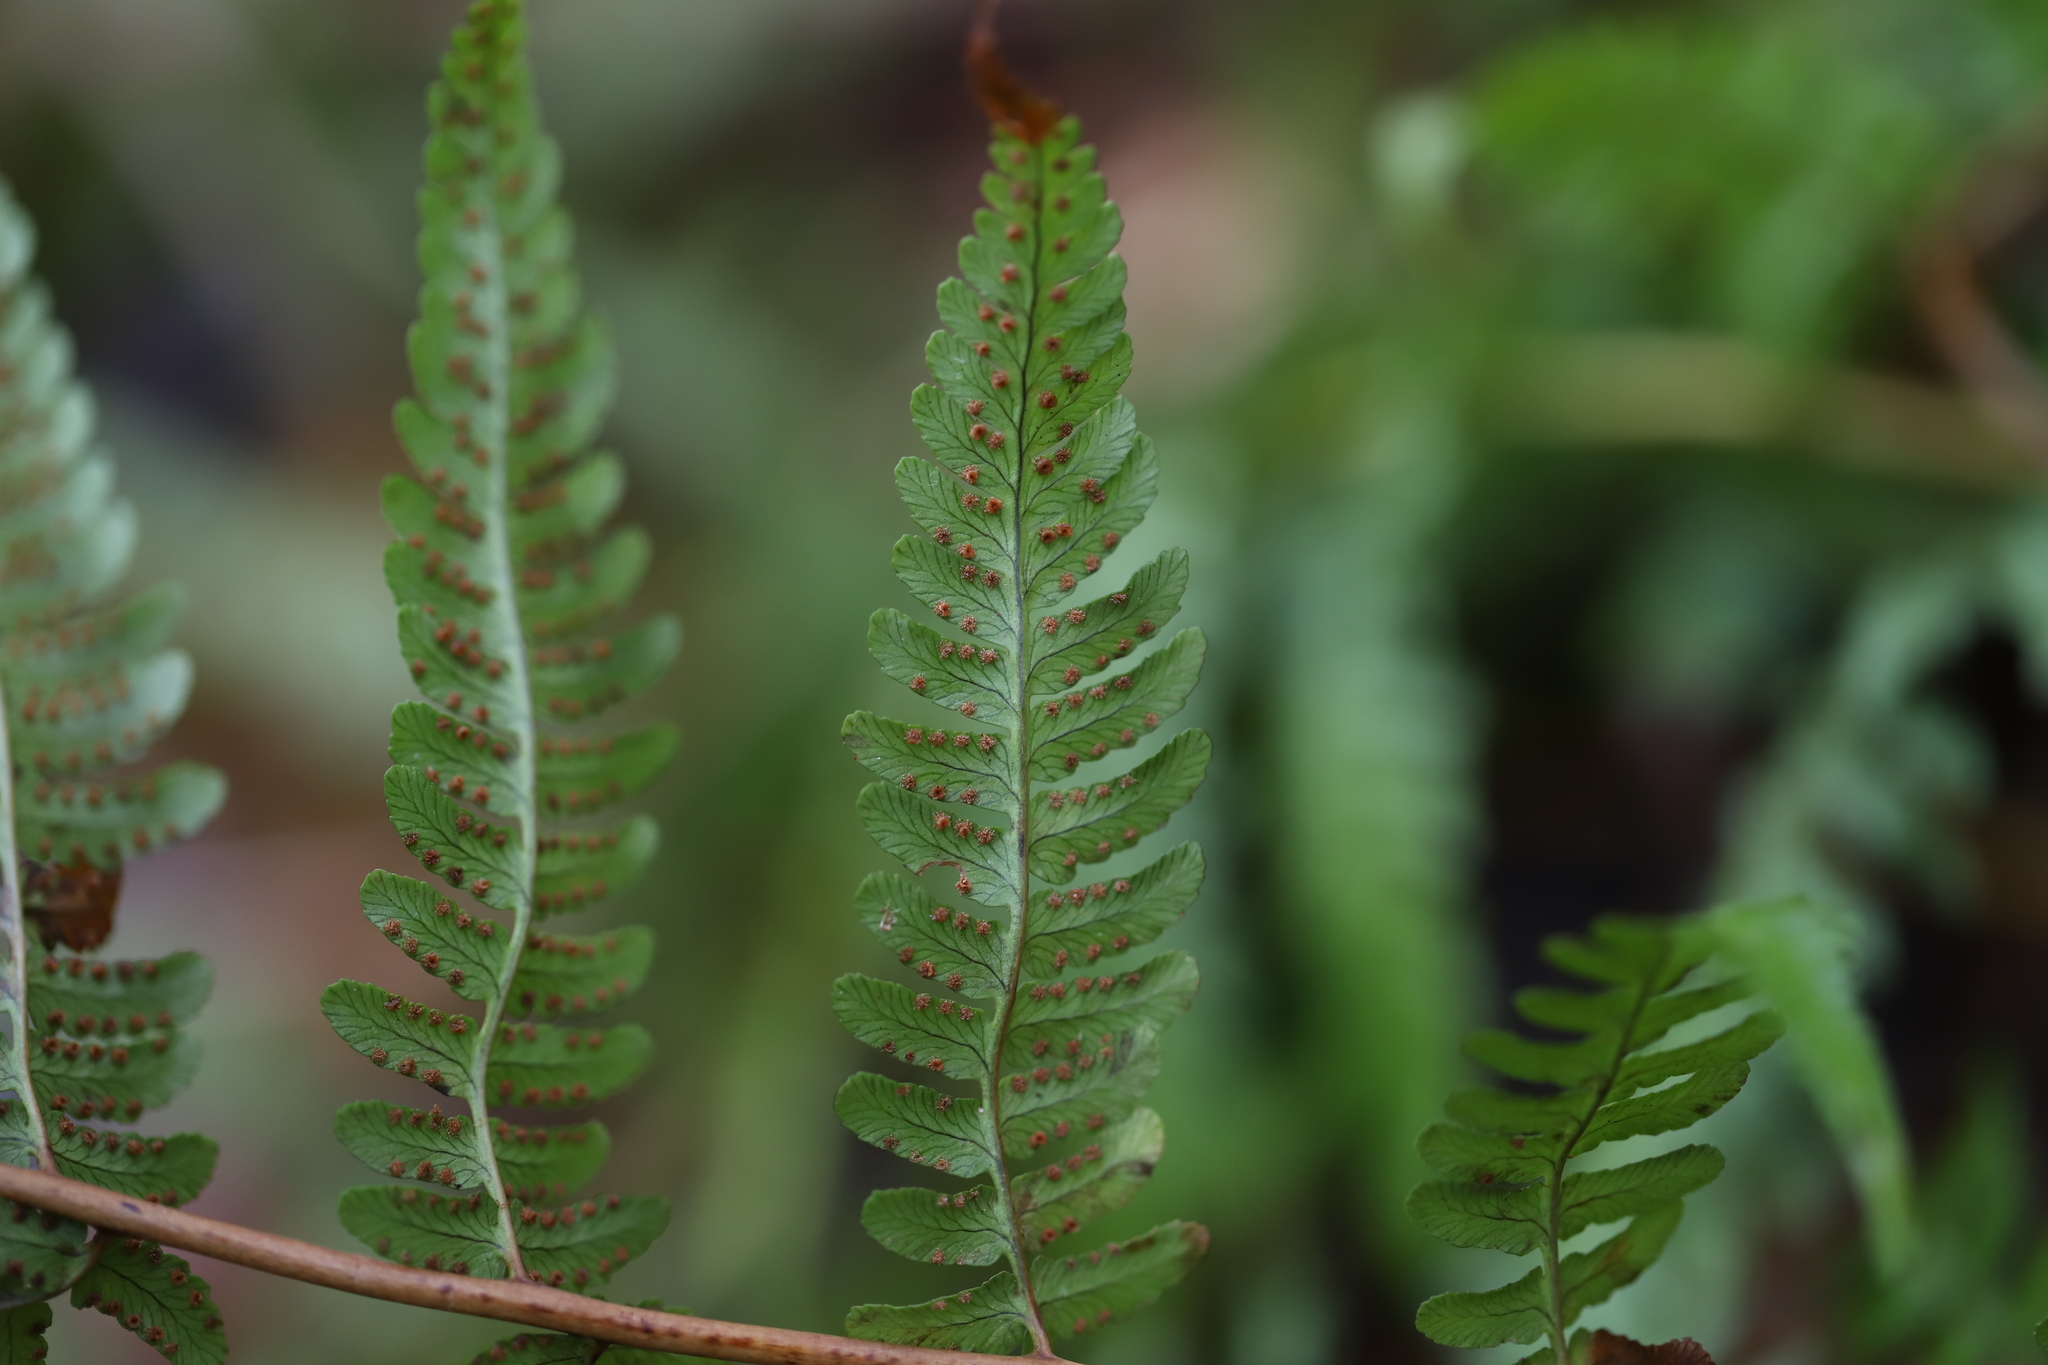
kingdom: Plantae
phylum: Tracheophyta
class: Polypodiopsida
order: Polypodiales
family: Dryopteridaceae
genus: Dryopteris
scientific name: Dryopteris marginalis
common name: Marginal wood fern
